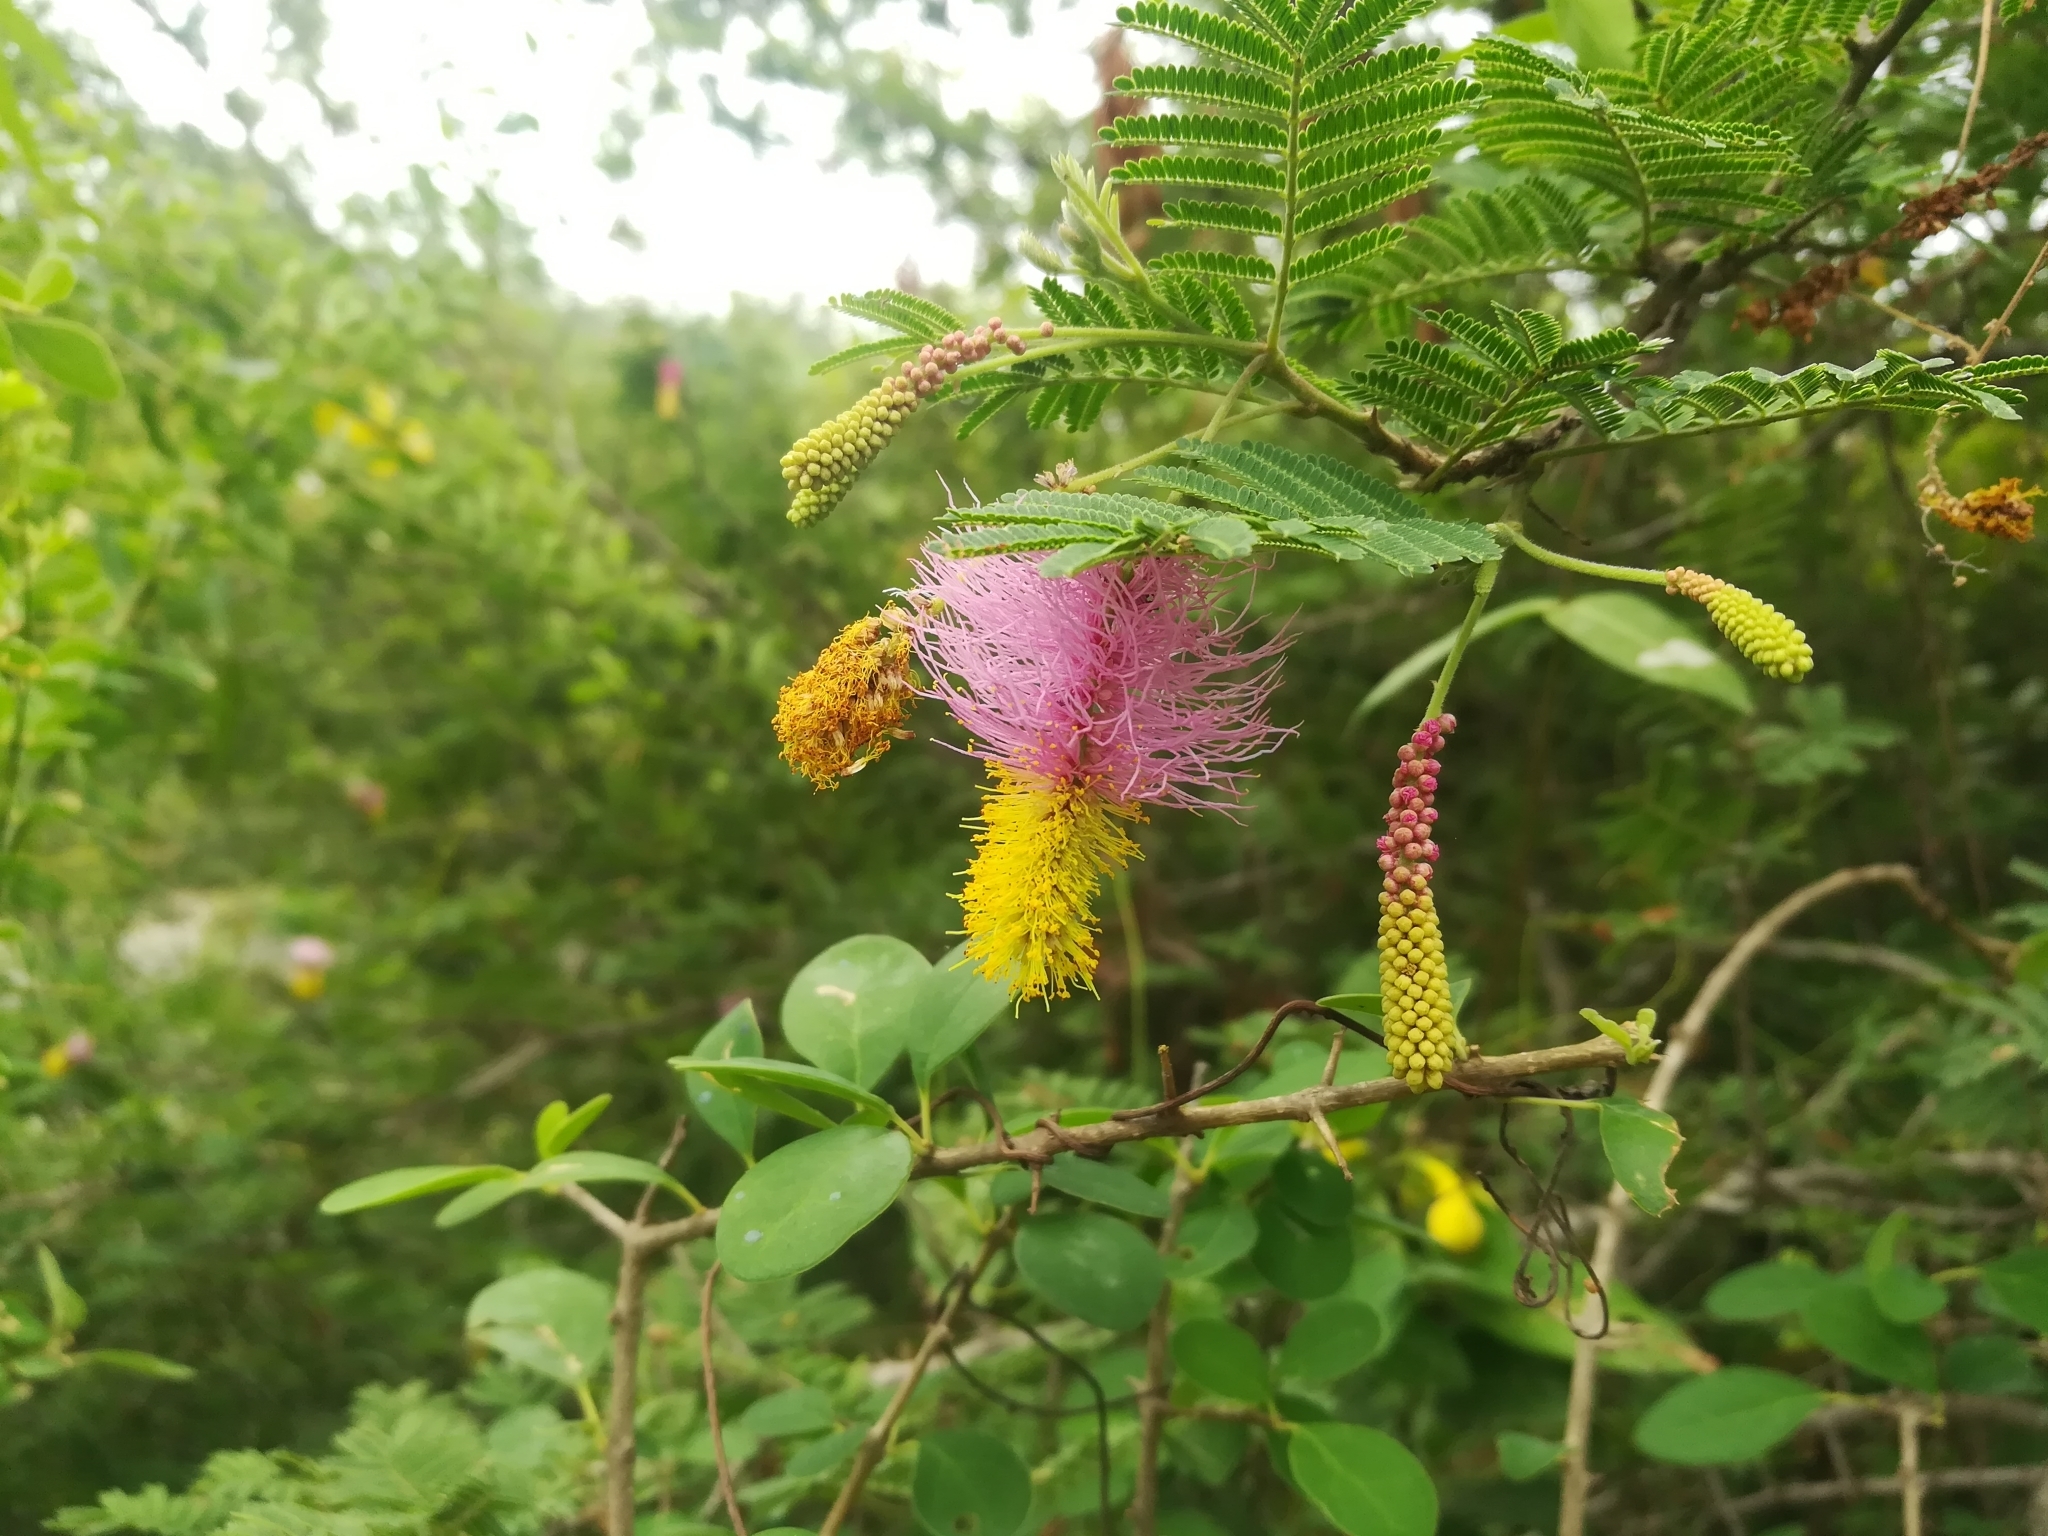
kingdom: Plantae
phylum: Tracheophyta
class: Magnoliopsida
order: Fabales
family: Fabaceae
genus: Dichrostachys
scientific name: Dichrostachys cinerea
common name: Sicklebush
